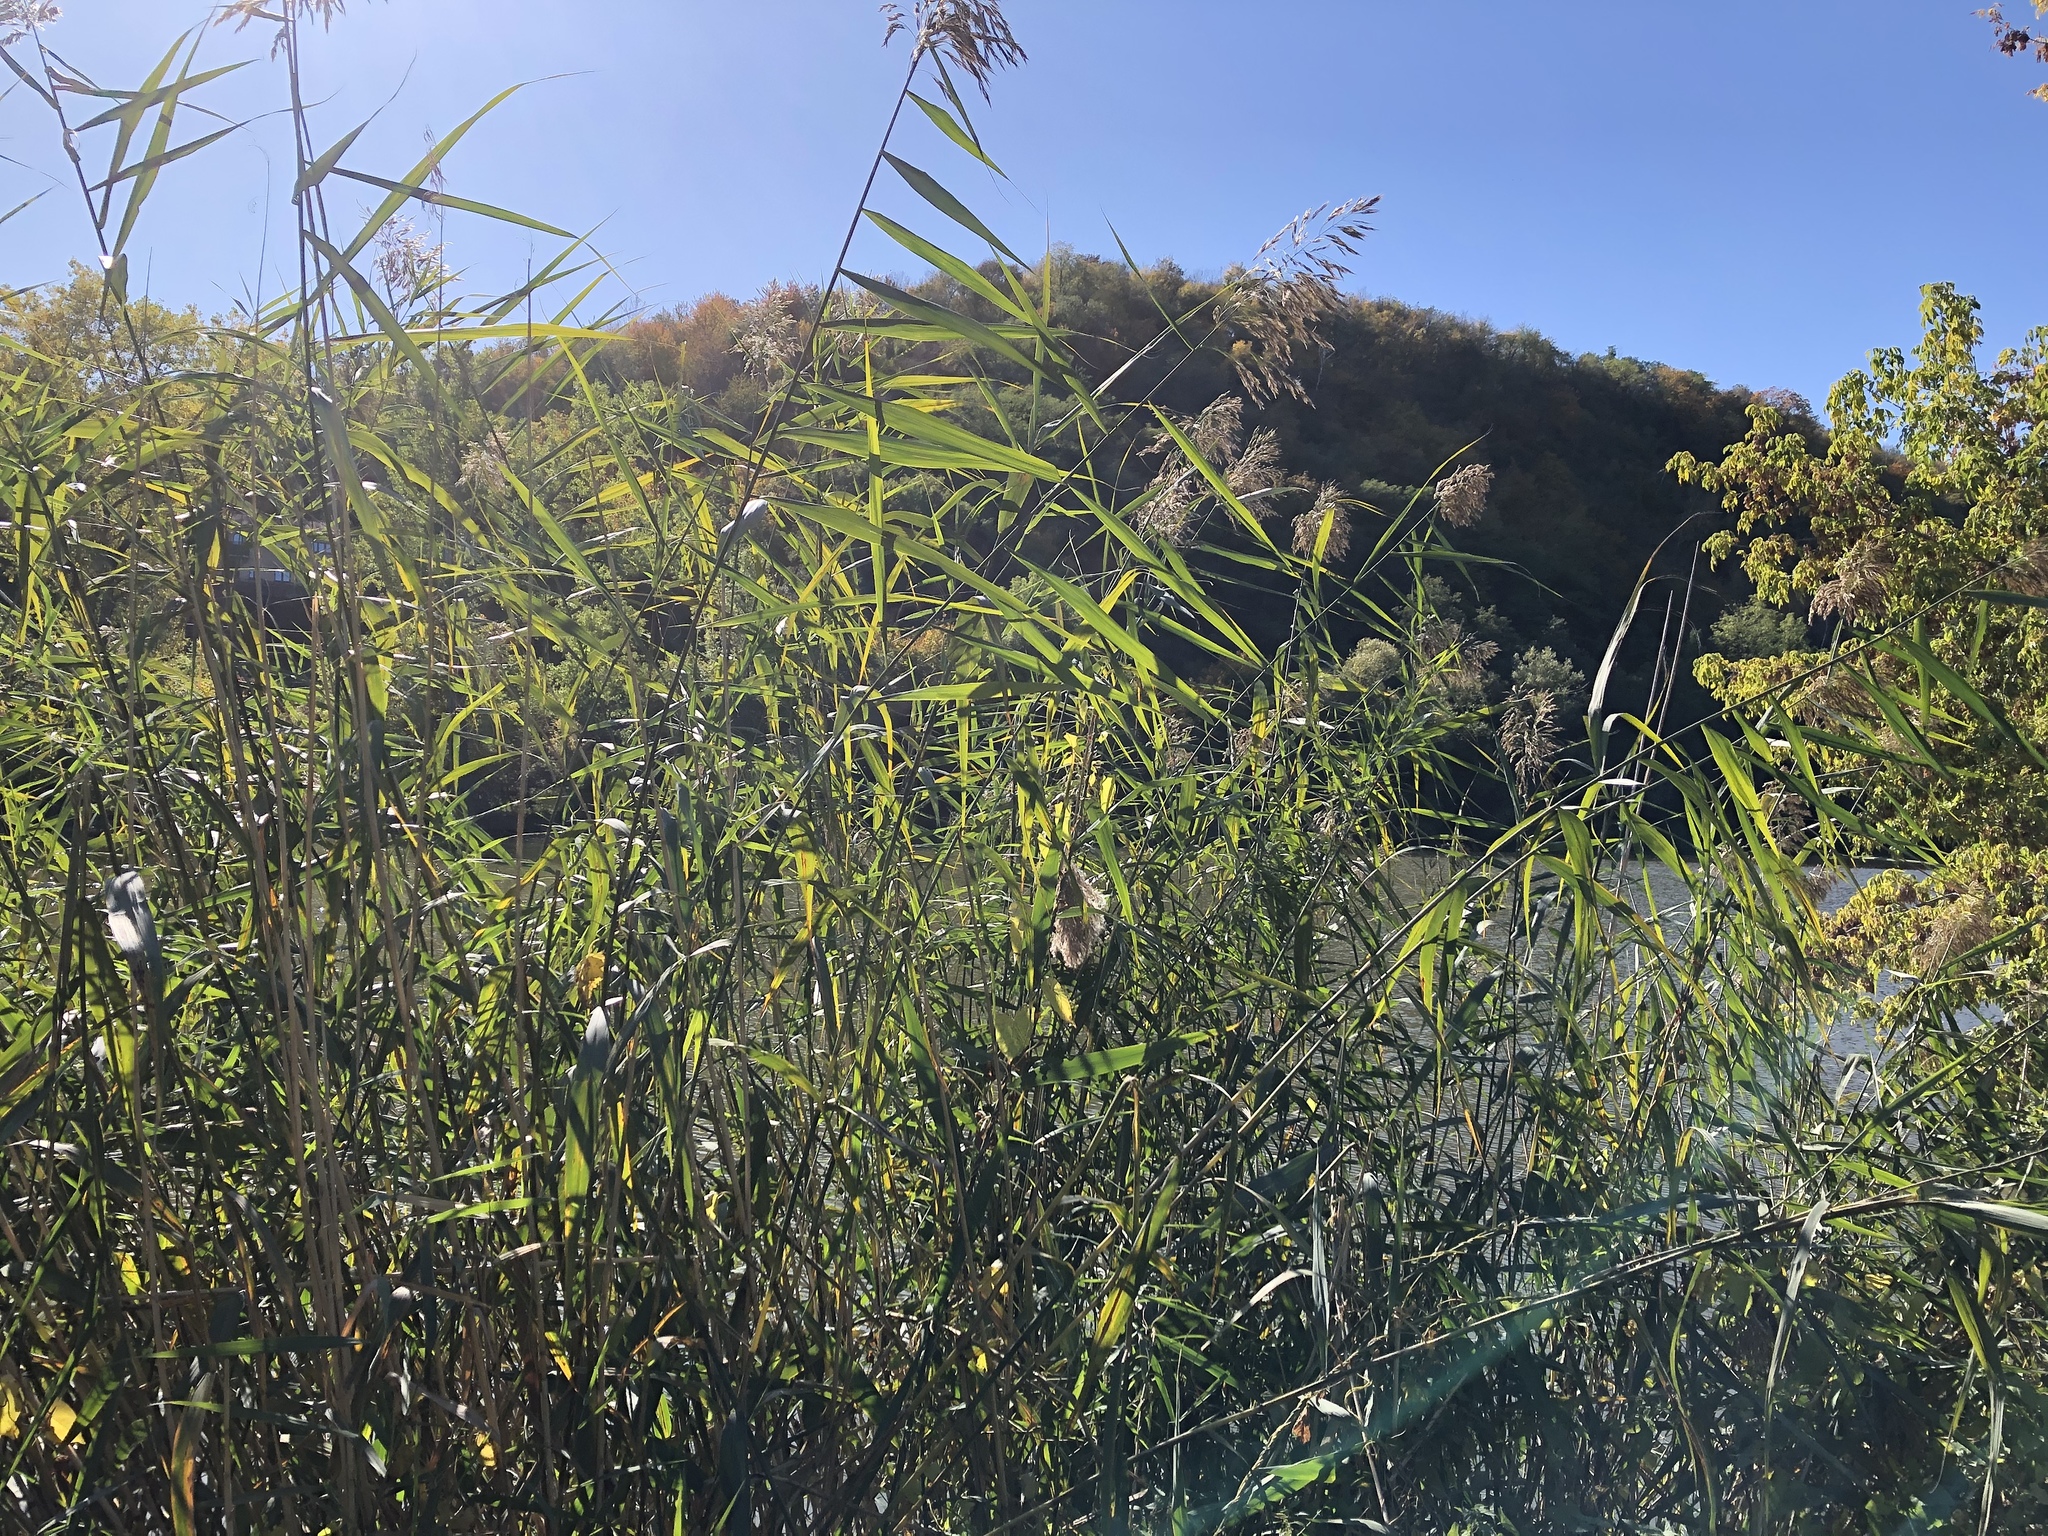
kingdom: Plantae
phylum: Tracheophyta
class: Liliopsida
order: Poales
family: Poaceae
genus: Phragmites
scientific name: Phragmites australis
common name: Common reed
